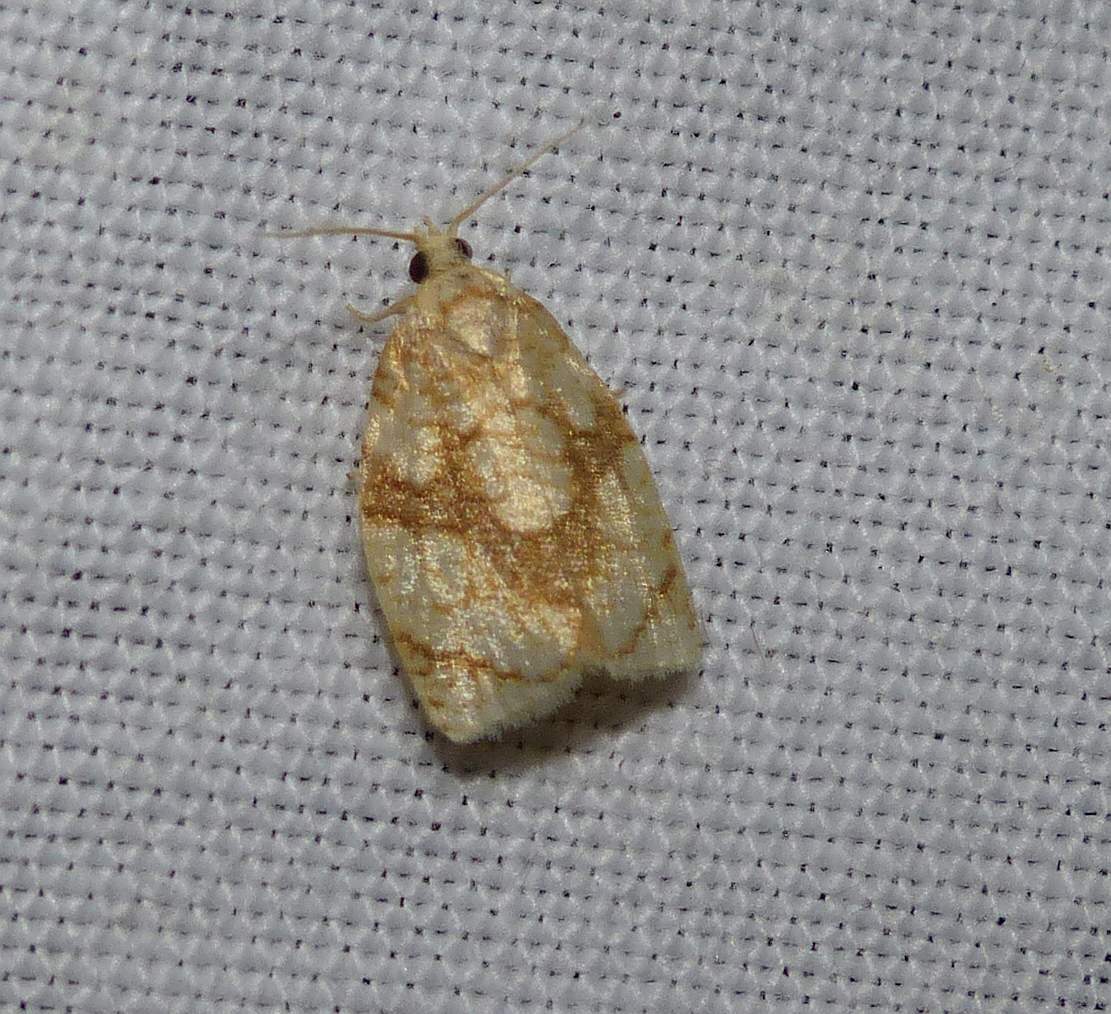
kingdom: Animalia
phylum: Arthropoda
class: Insecta
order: Lepidoptera
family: Tortricidae
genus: Adoxophyes
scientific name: Adoxophyes negundana
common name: Shimmering gold adoxophyes moth
